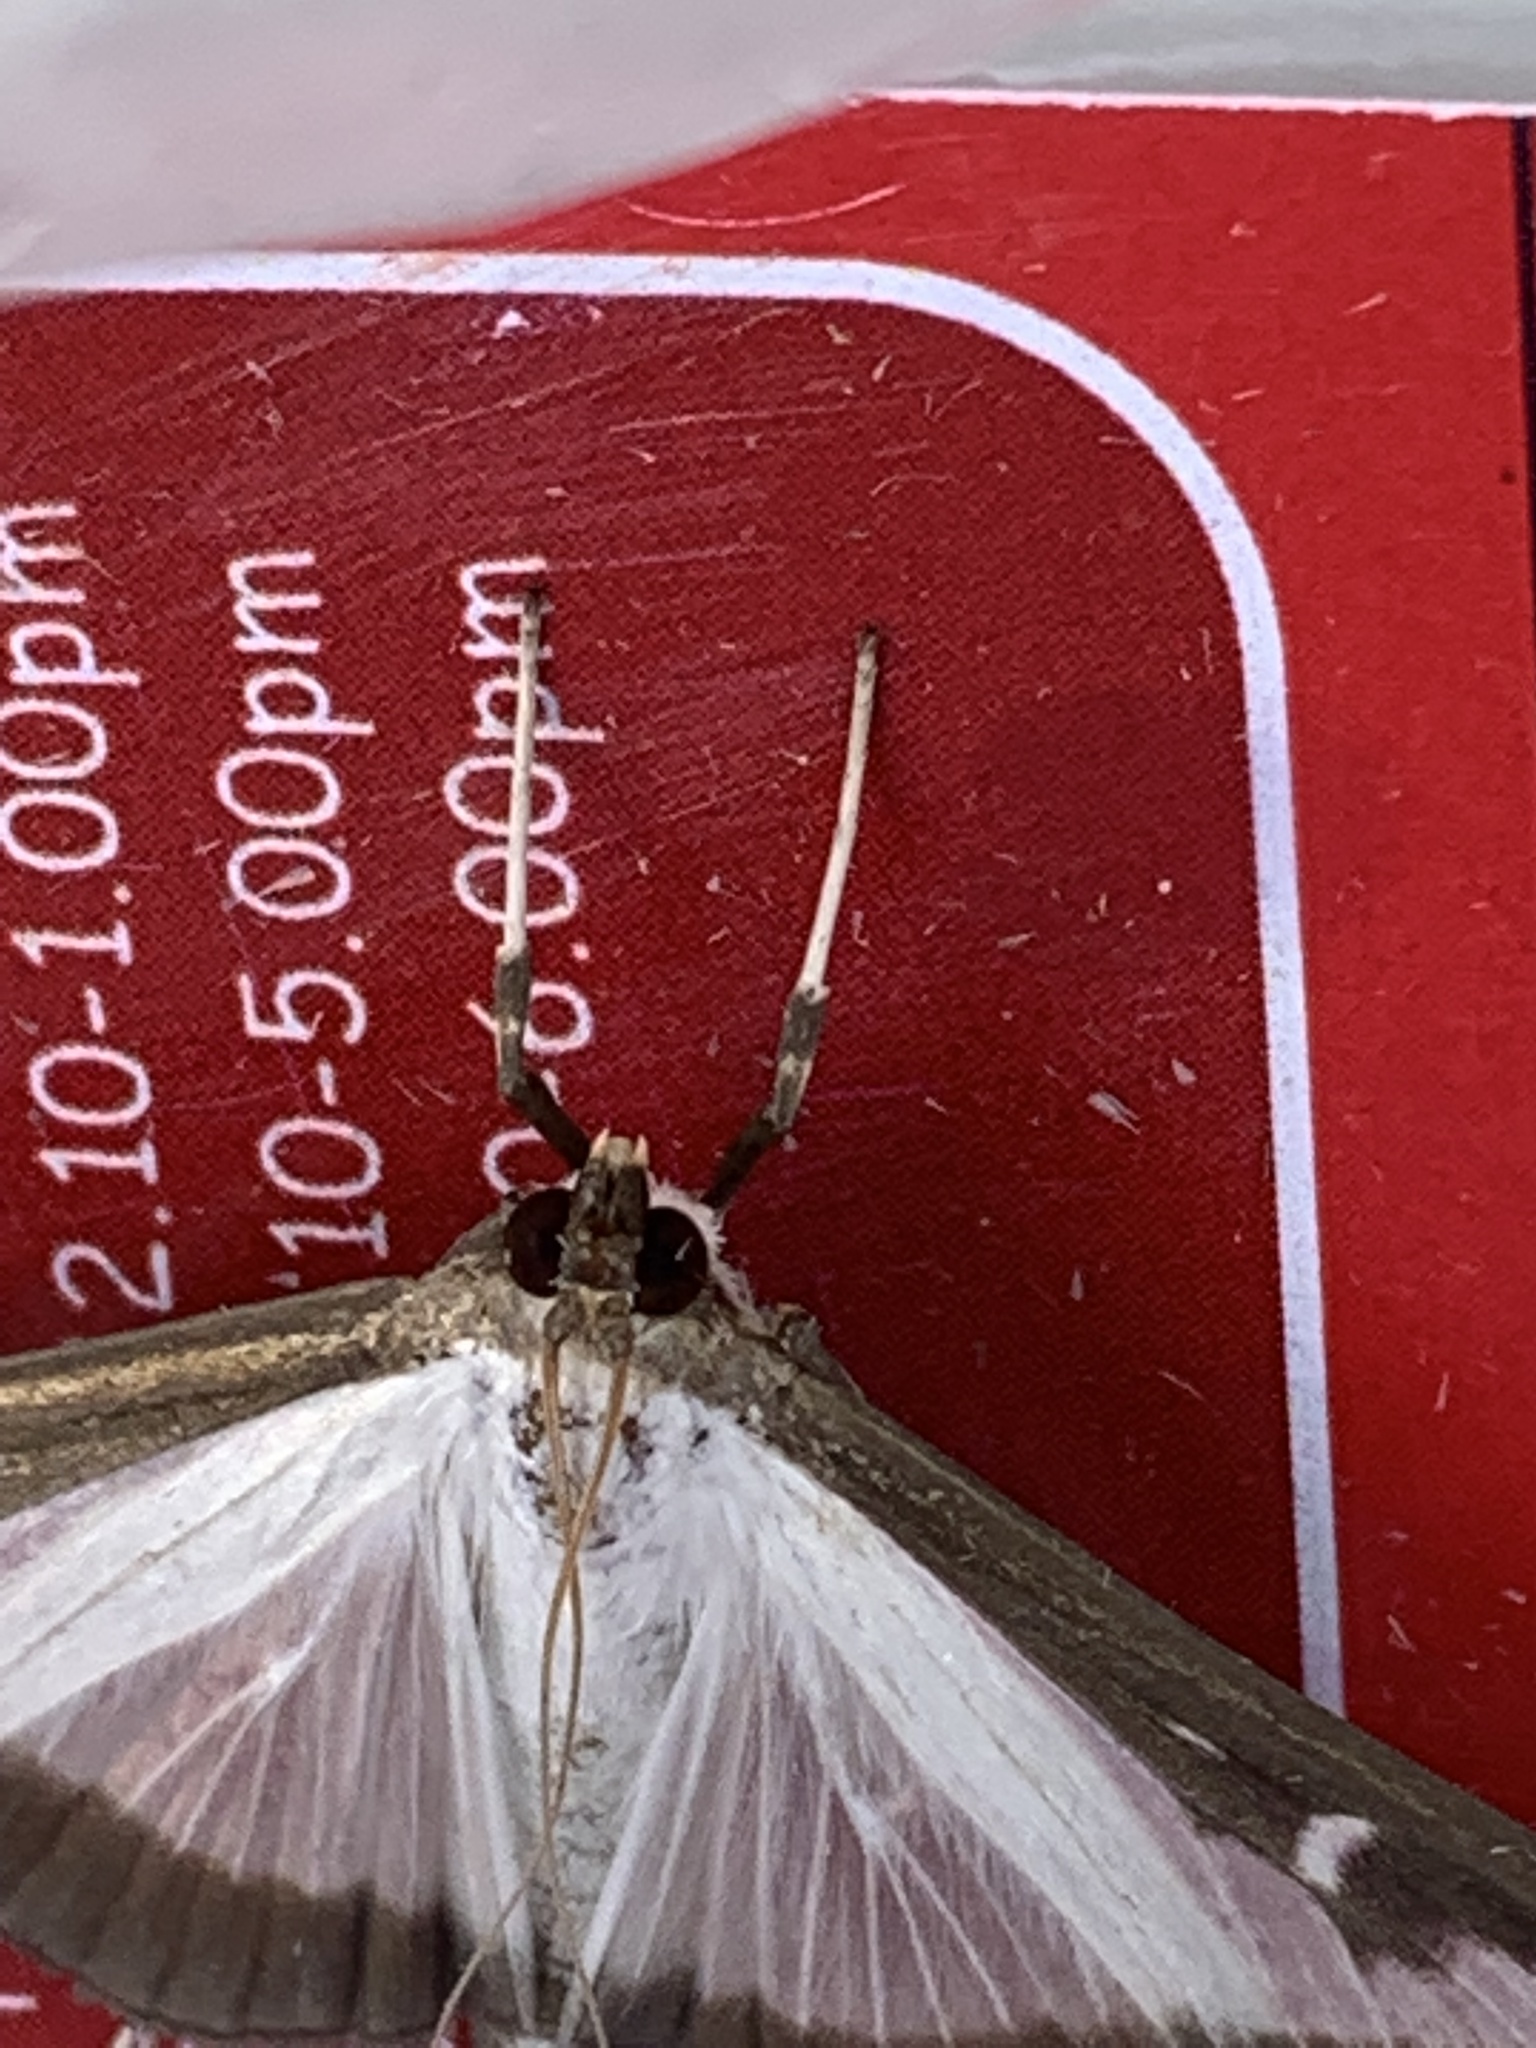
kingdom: Animalia
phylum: Arthropoda
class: Insecta
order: Lepidoptera
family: Crambidae
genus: Cydalima
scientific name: Cydalima perspectalis
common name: Box tree moth
